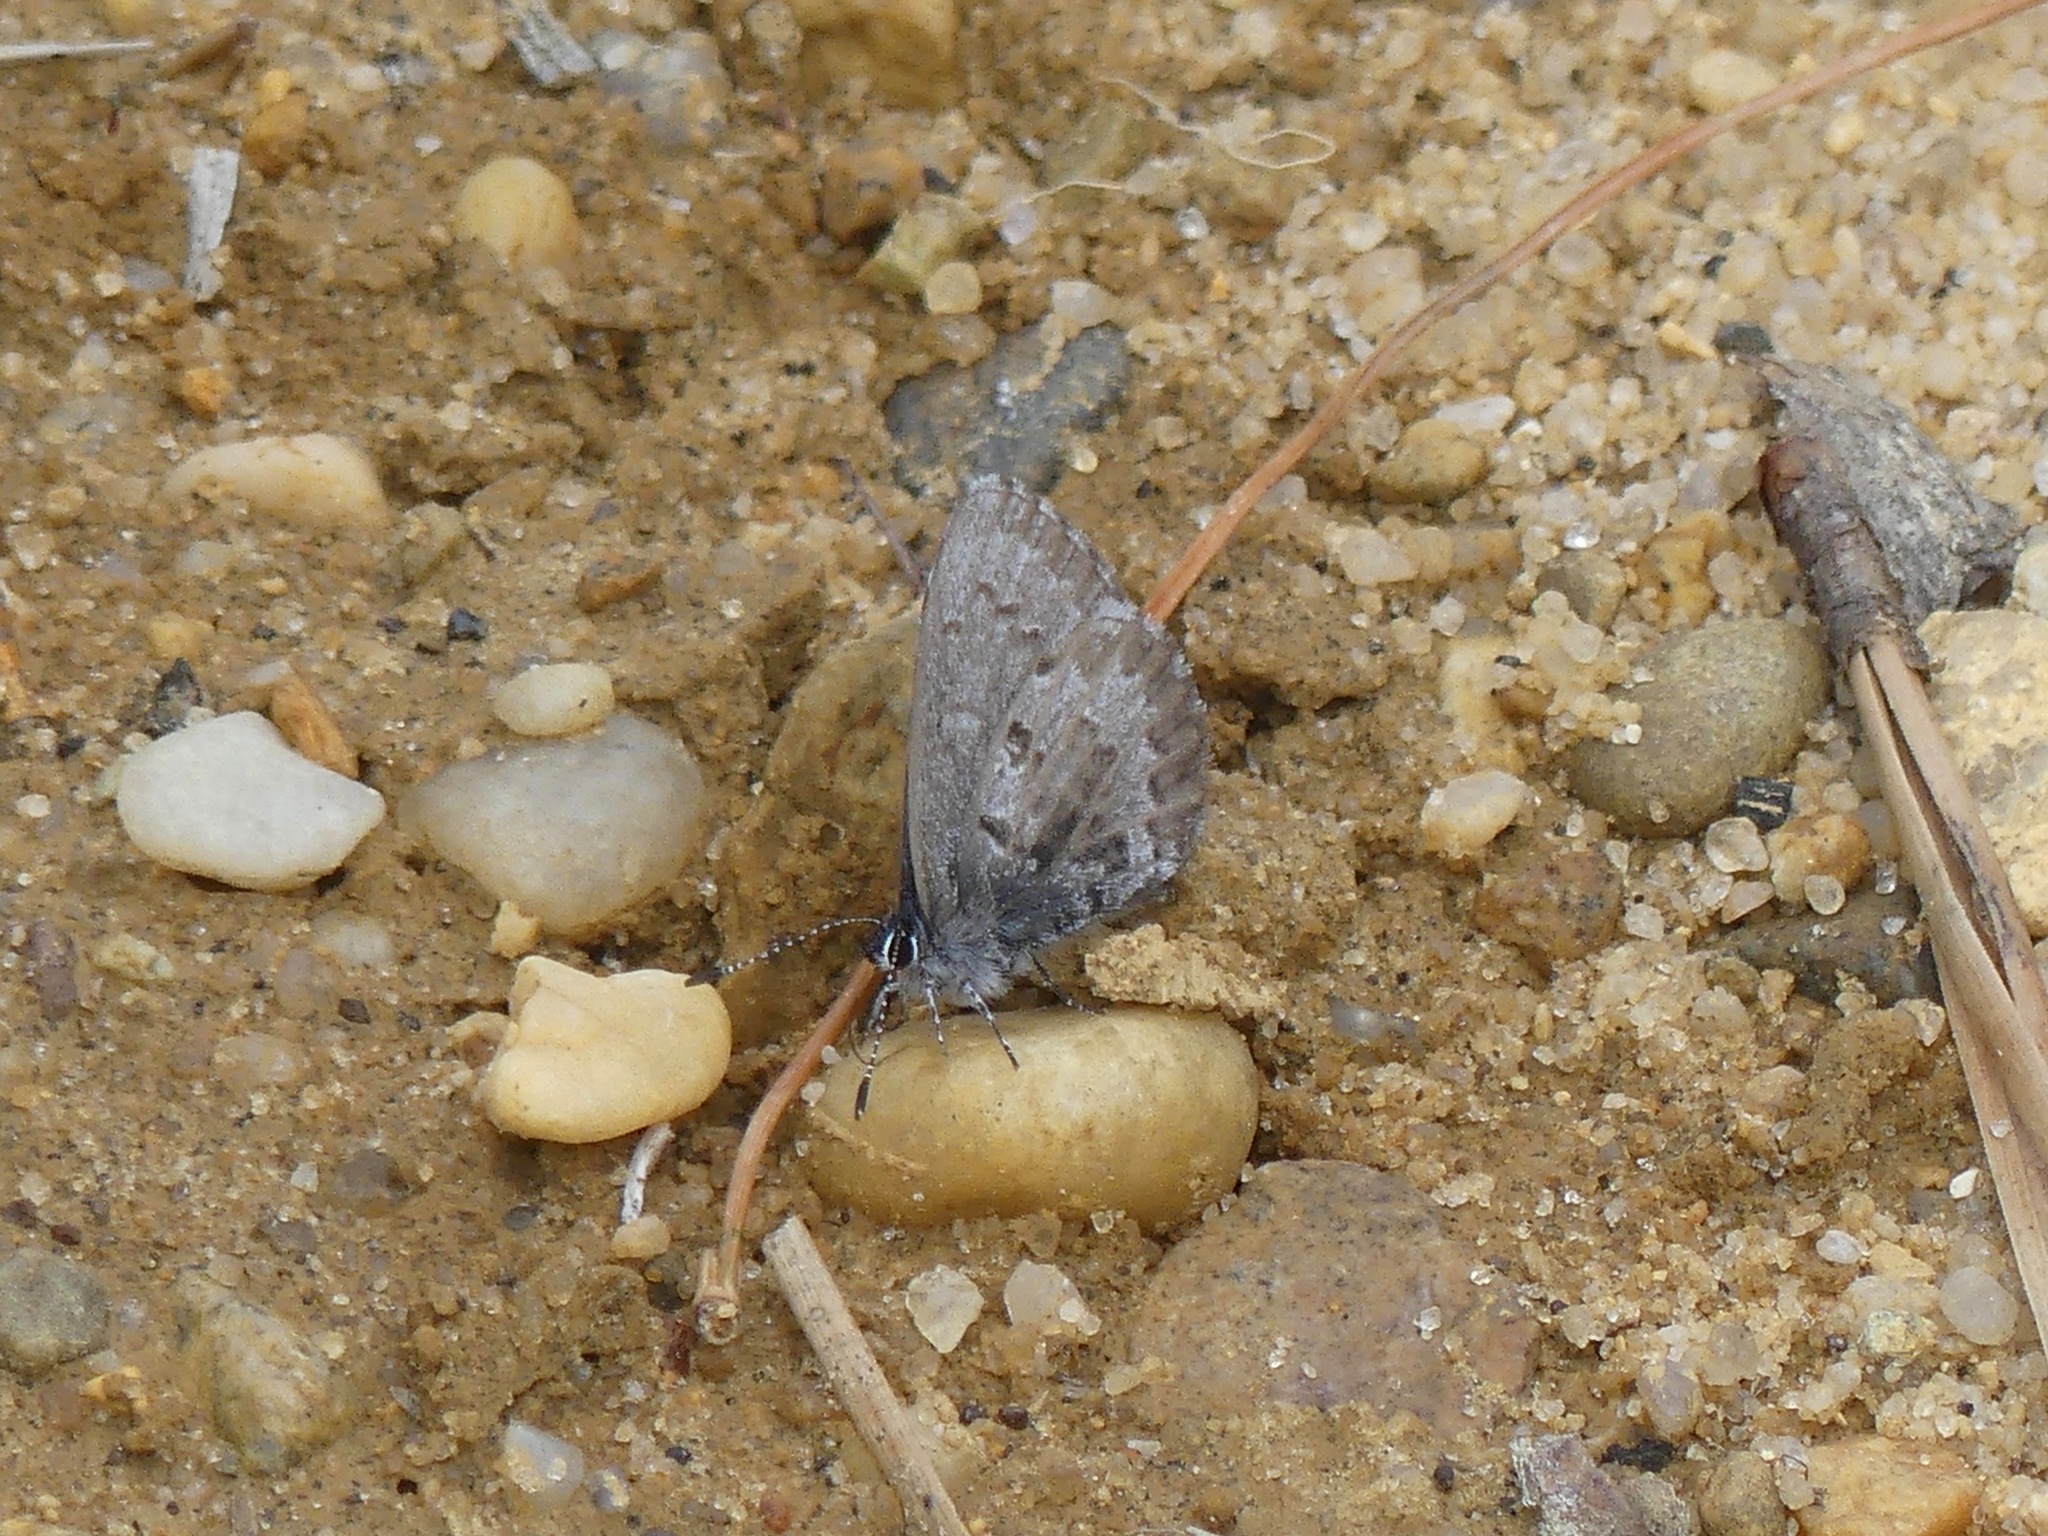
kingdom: Animalia
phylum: Arthropoda
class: Insecta
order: Lepidoptera
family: Lycaenidae
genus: Celastrina
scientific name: Celastrina ladon
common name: Spring azure
